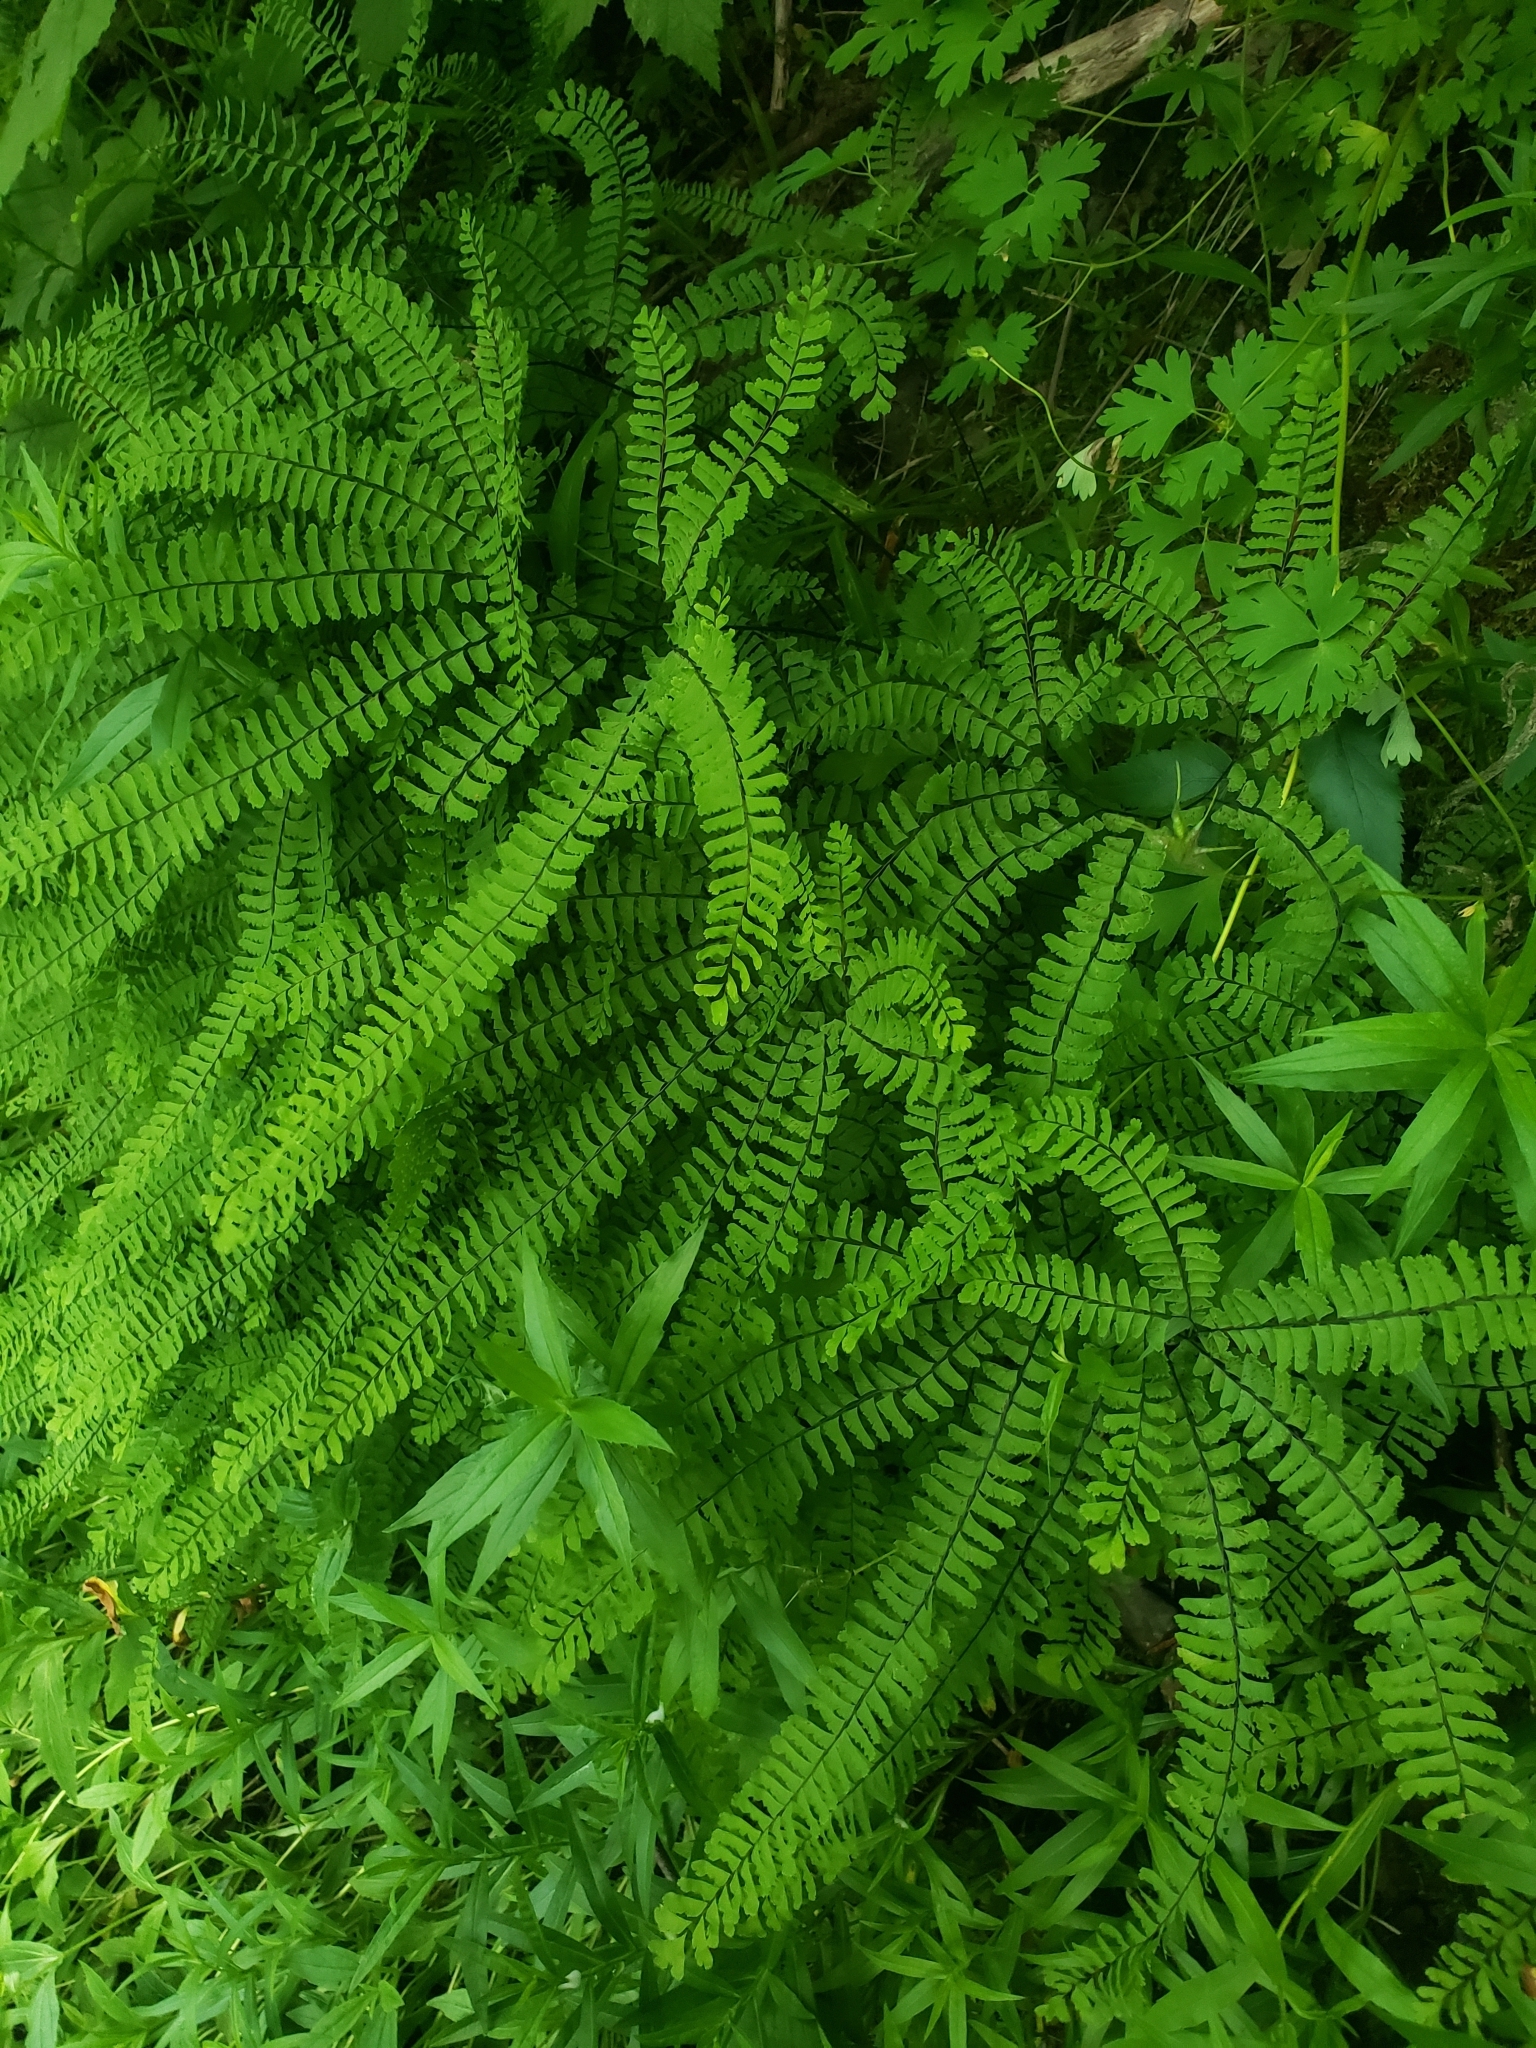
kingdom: Plantae
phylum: Tracheophyta
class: Polypodiopsida
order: Polypodiales
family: Pteridaceae
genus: Adiantum
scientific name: Adiantum aleuticum
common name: Aleutian maidenhair fern
